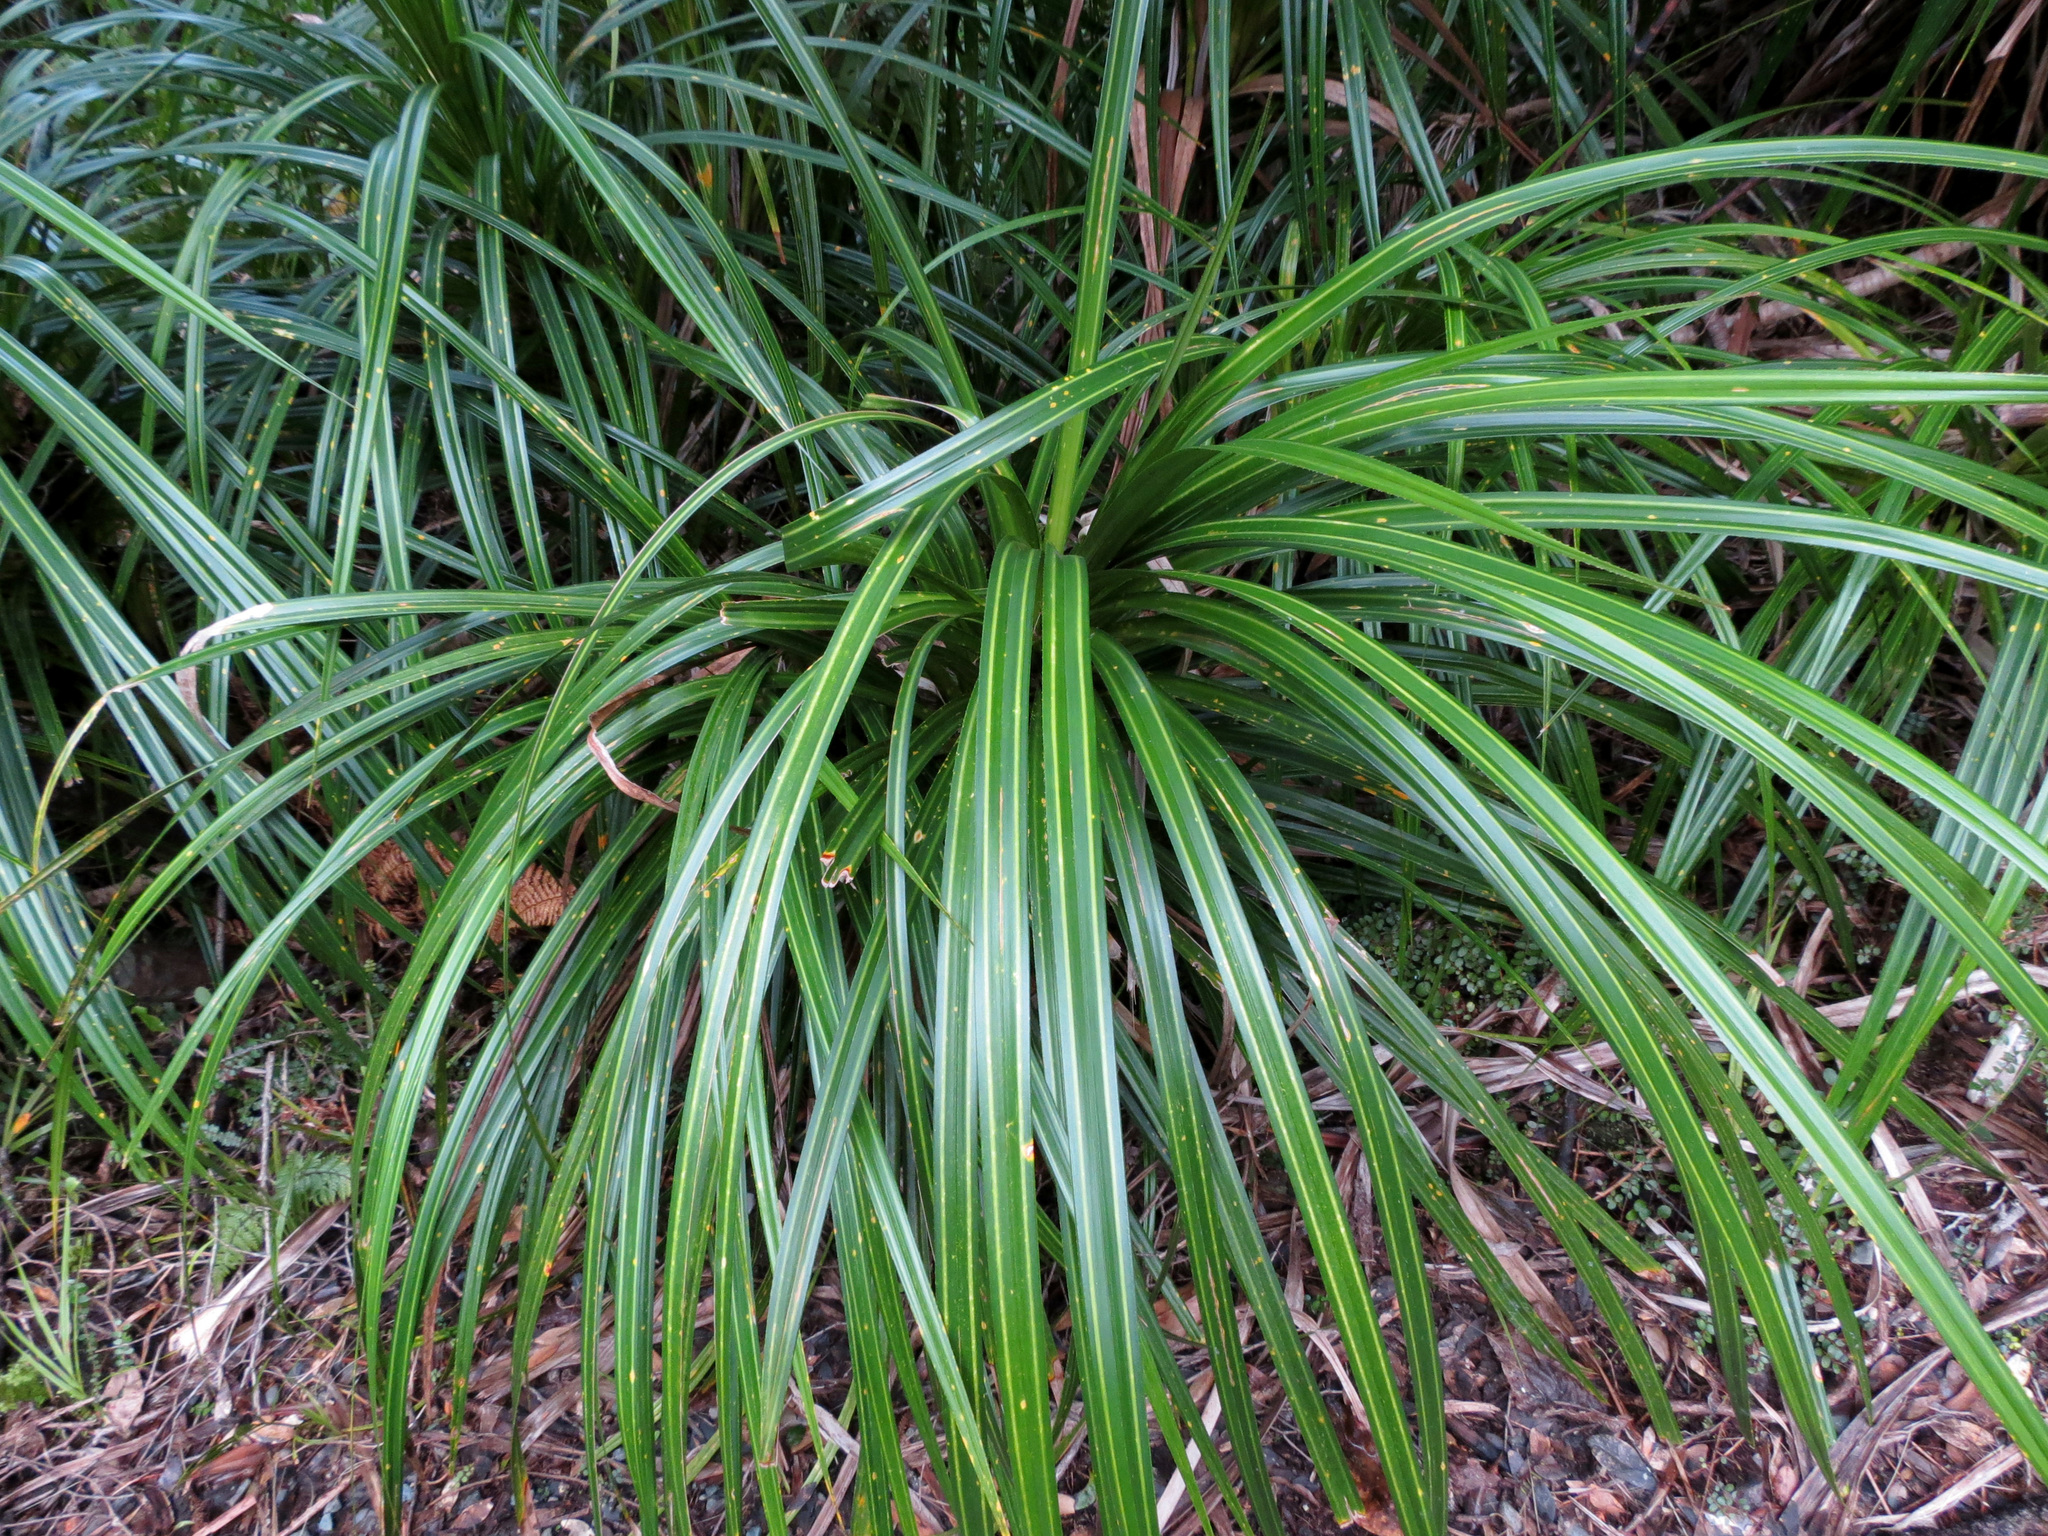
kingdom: Plantae
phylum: Tracheophyta
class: Liliopsida
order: Pandanales
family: Pandanaceae
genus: Freycinetia
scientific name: Freycinetia banksii
